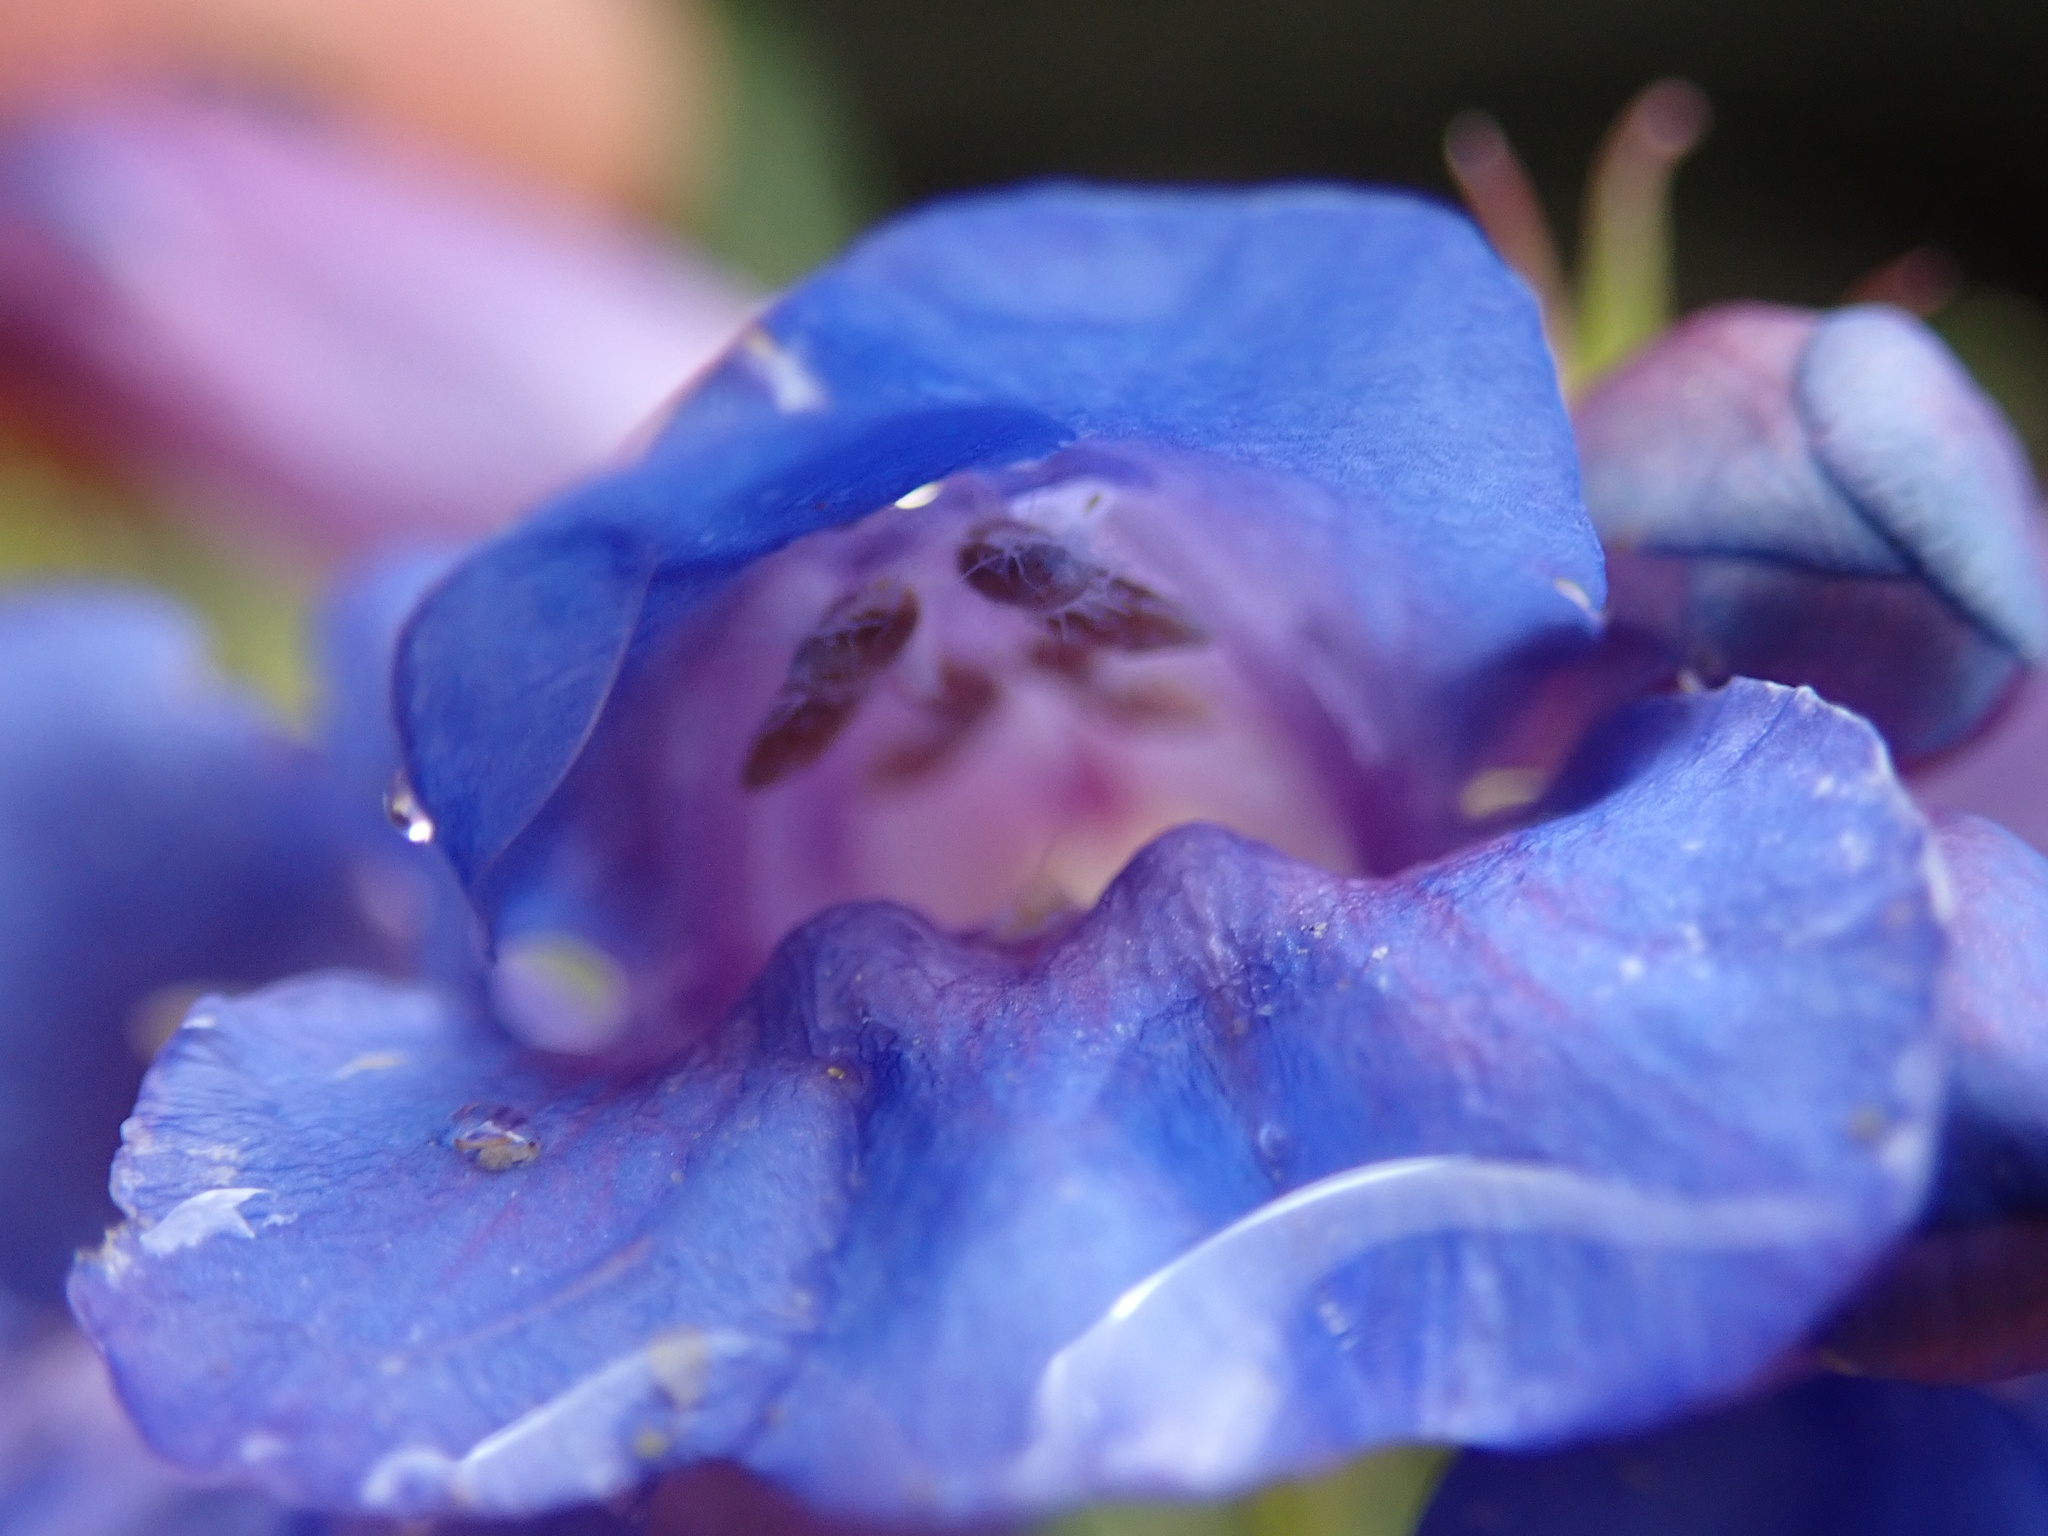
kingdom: Plantae
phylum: Tracheophyta
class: Magnoliopsida
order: Lamiales
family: Plantaginaceae
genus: Penstemon
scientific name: Penstemon caryi
